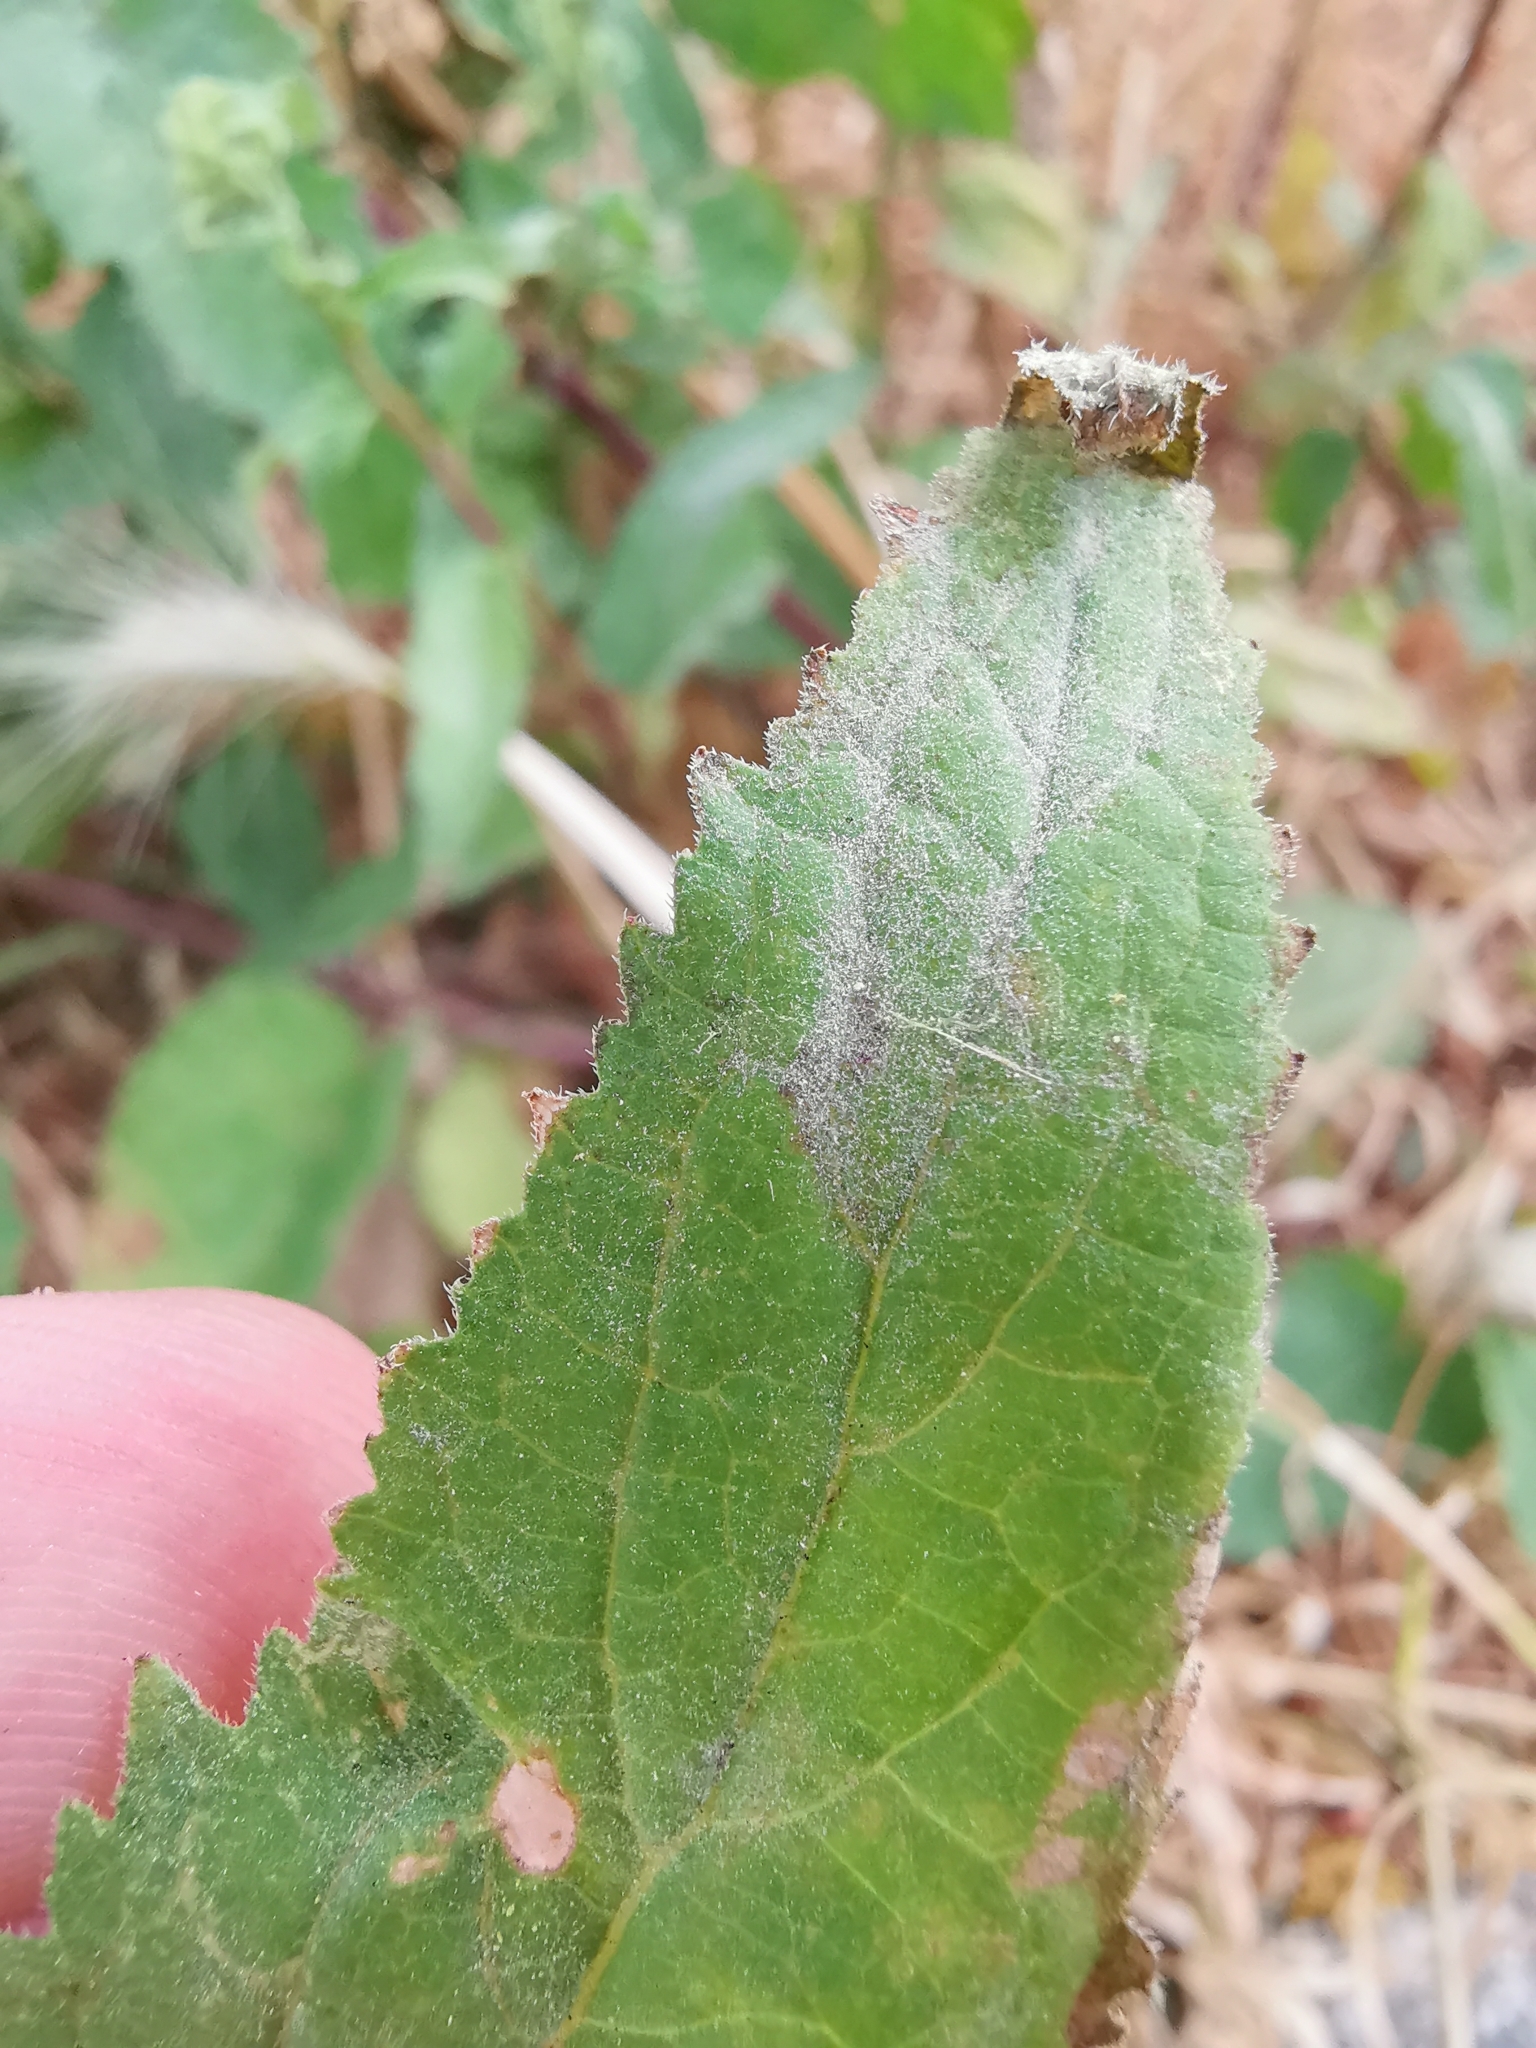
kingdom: Fungi
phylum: Ascomycota
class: Leotiomycetes
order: Helotiales
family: Erysiphaceae
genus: Golovinomyces
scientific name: Golovinomyces bolayi
